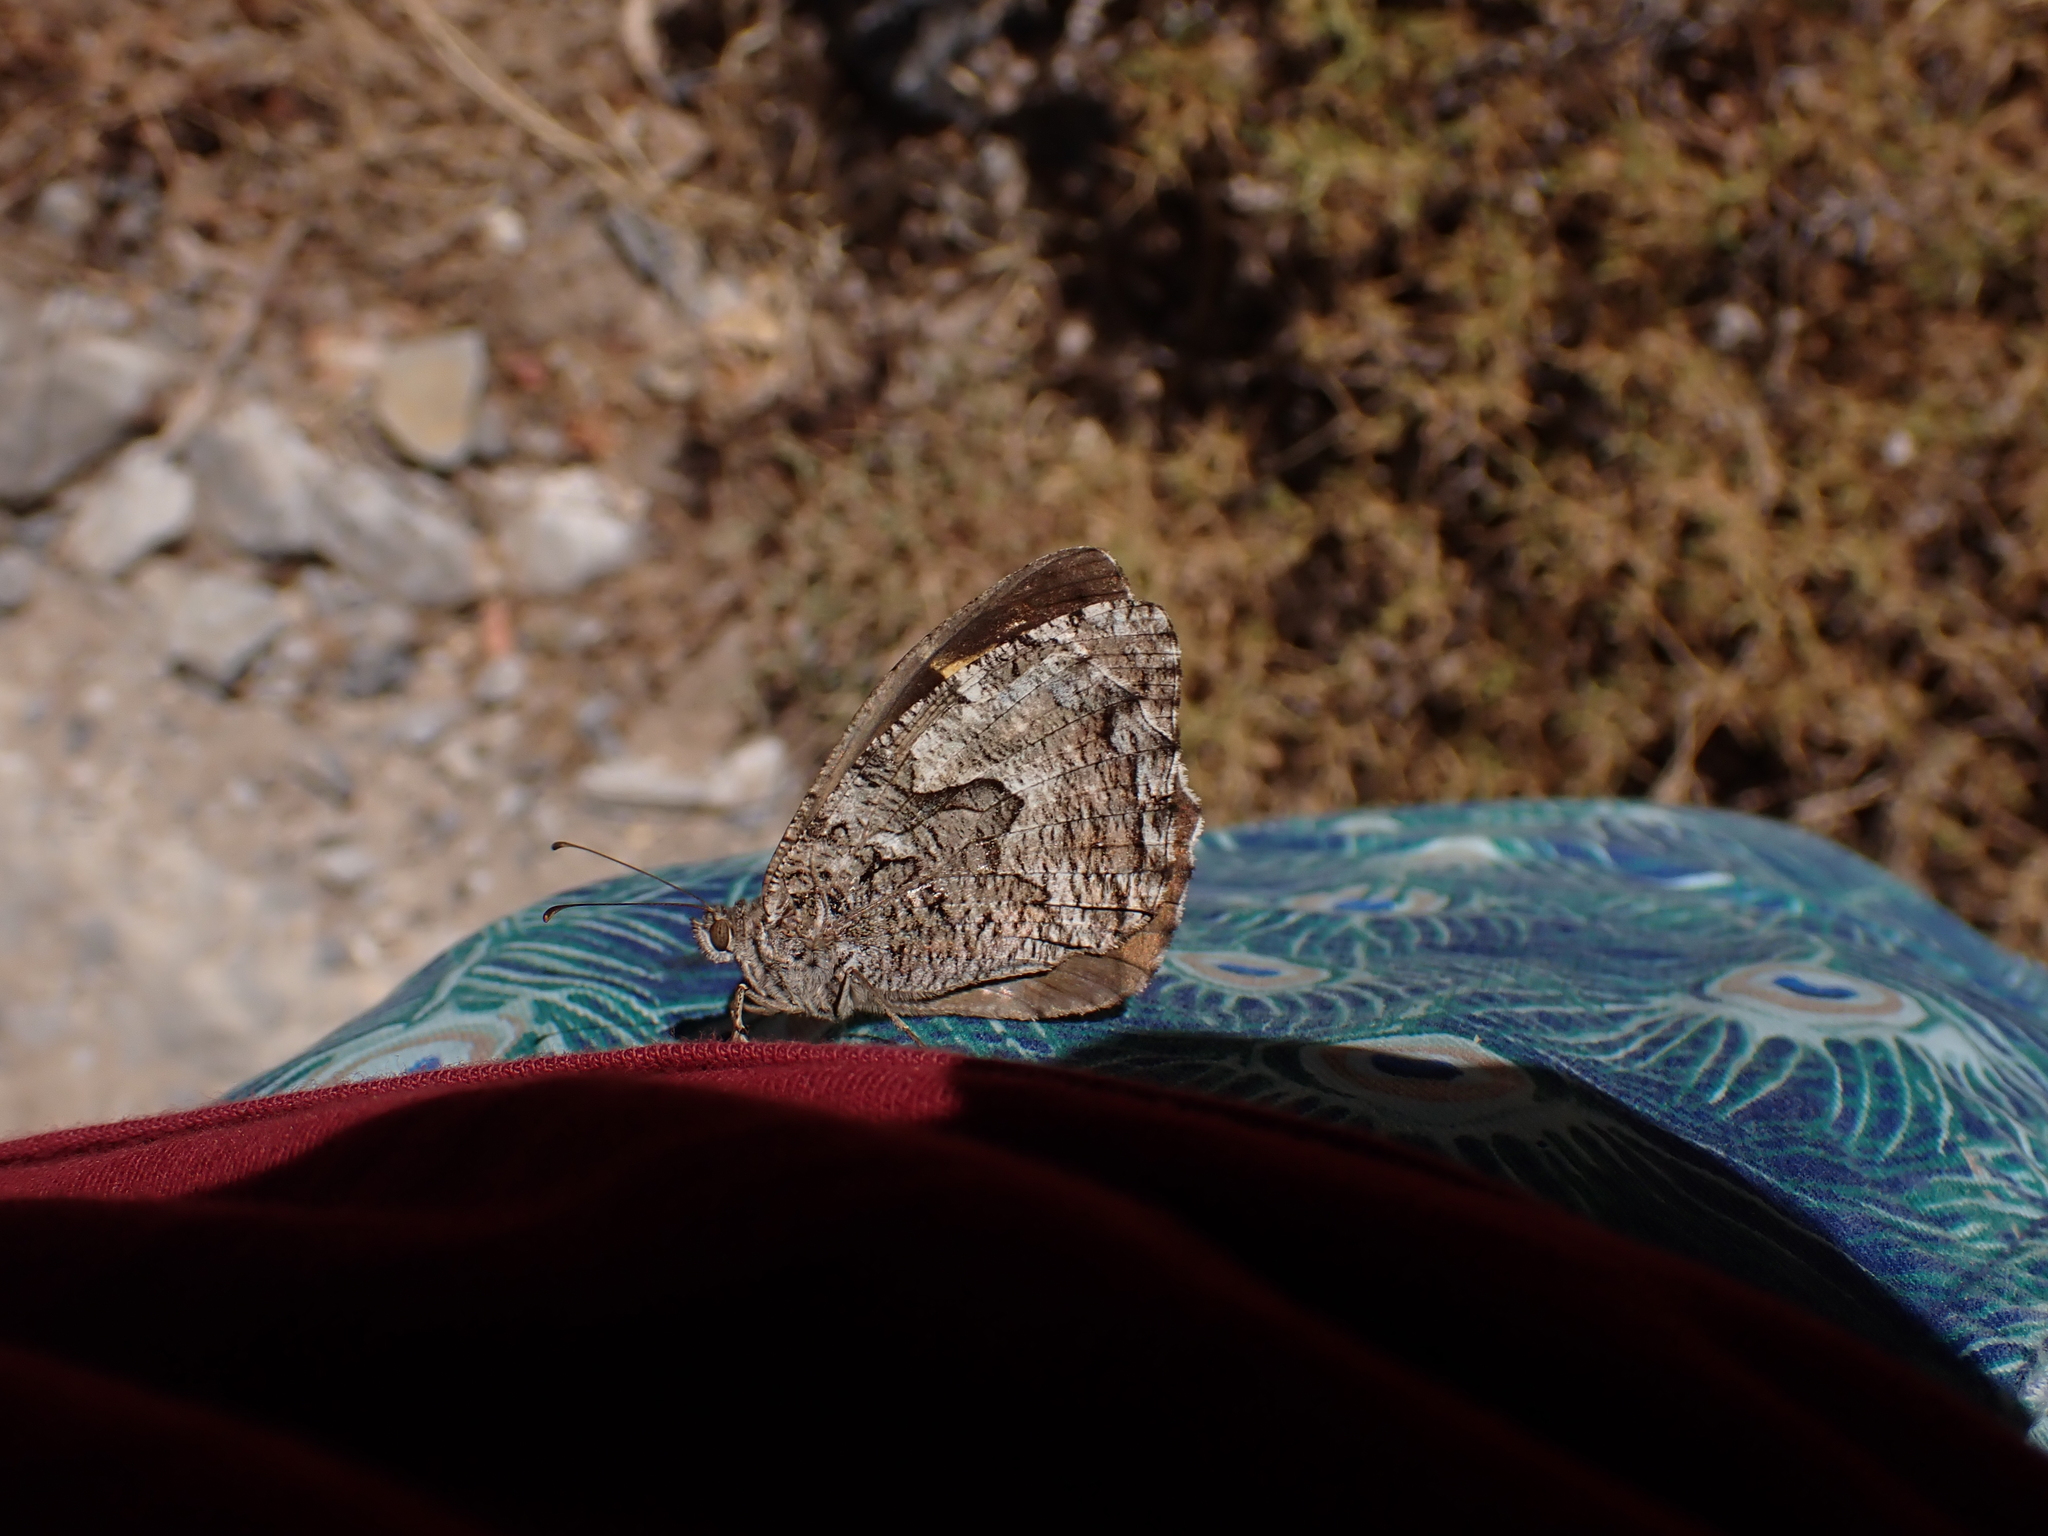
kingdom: Animalia
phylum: Arthropoda
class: Insecta
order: Lepidoptera
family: Nymphalidae
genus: Hipparchia
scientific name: Hipparchia cretica
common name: Cretan grayling
